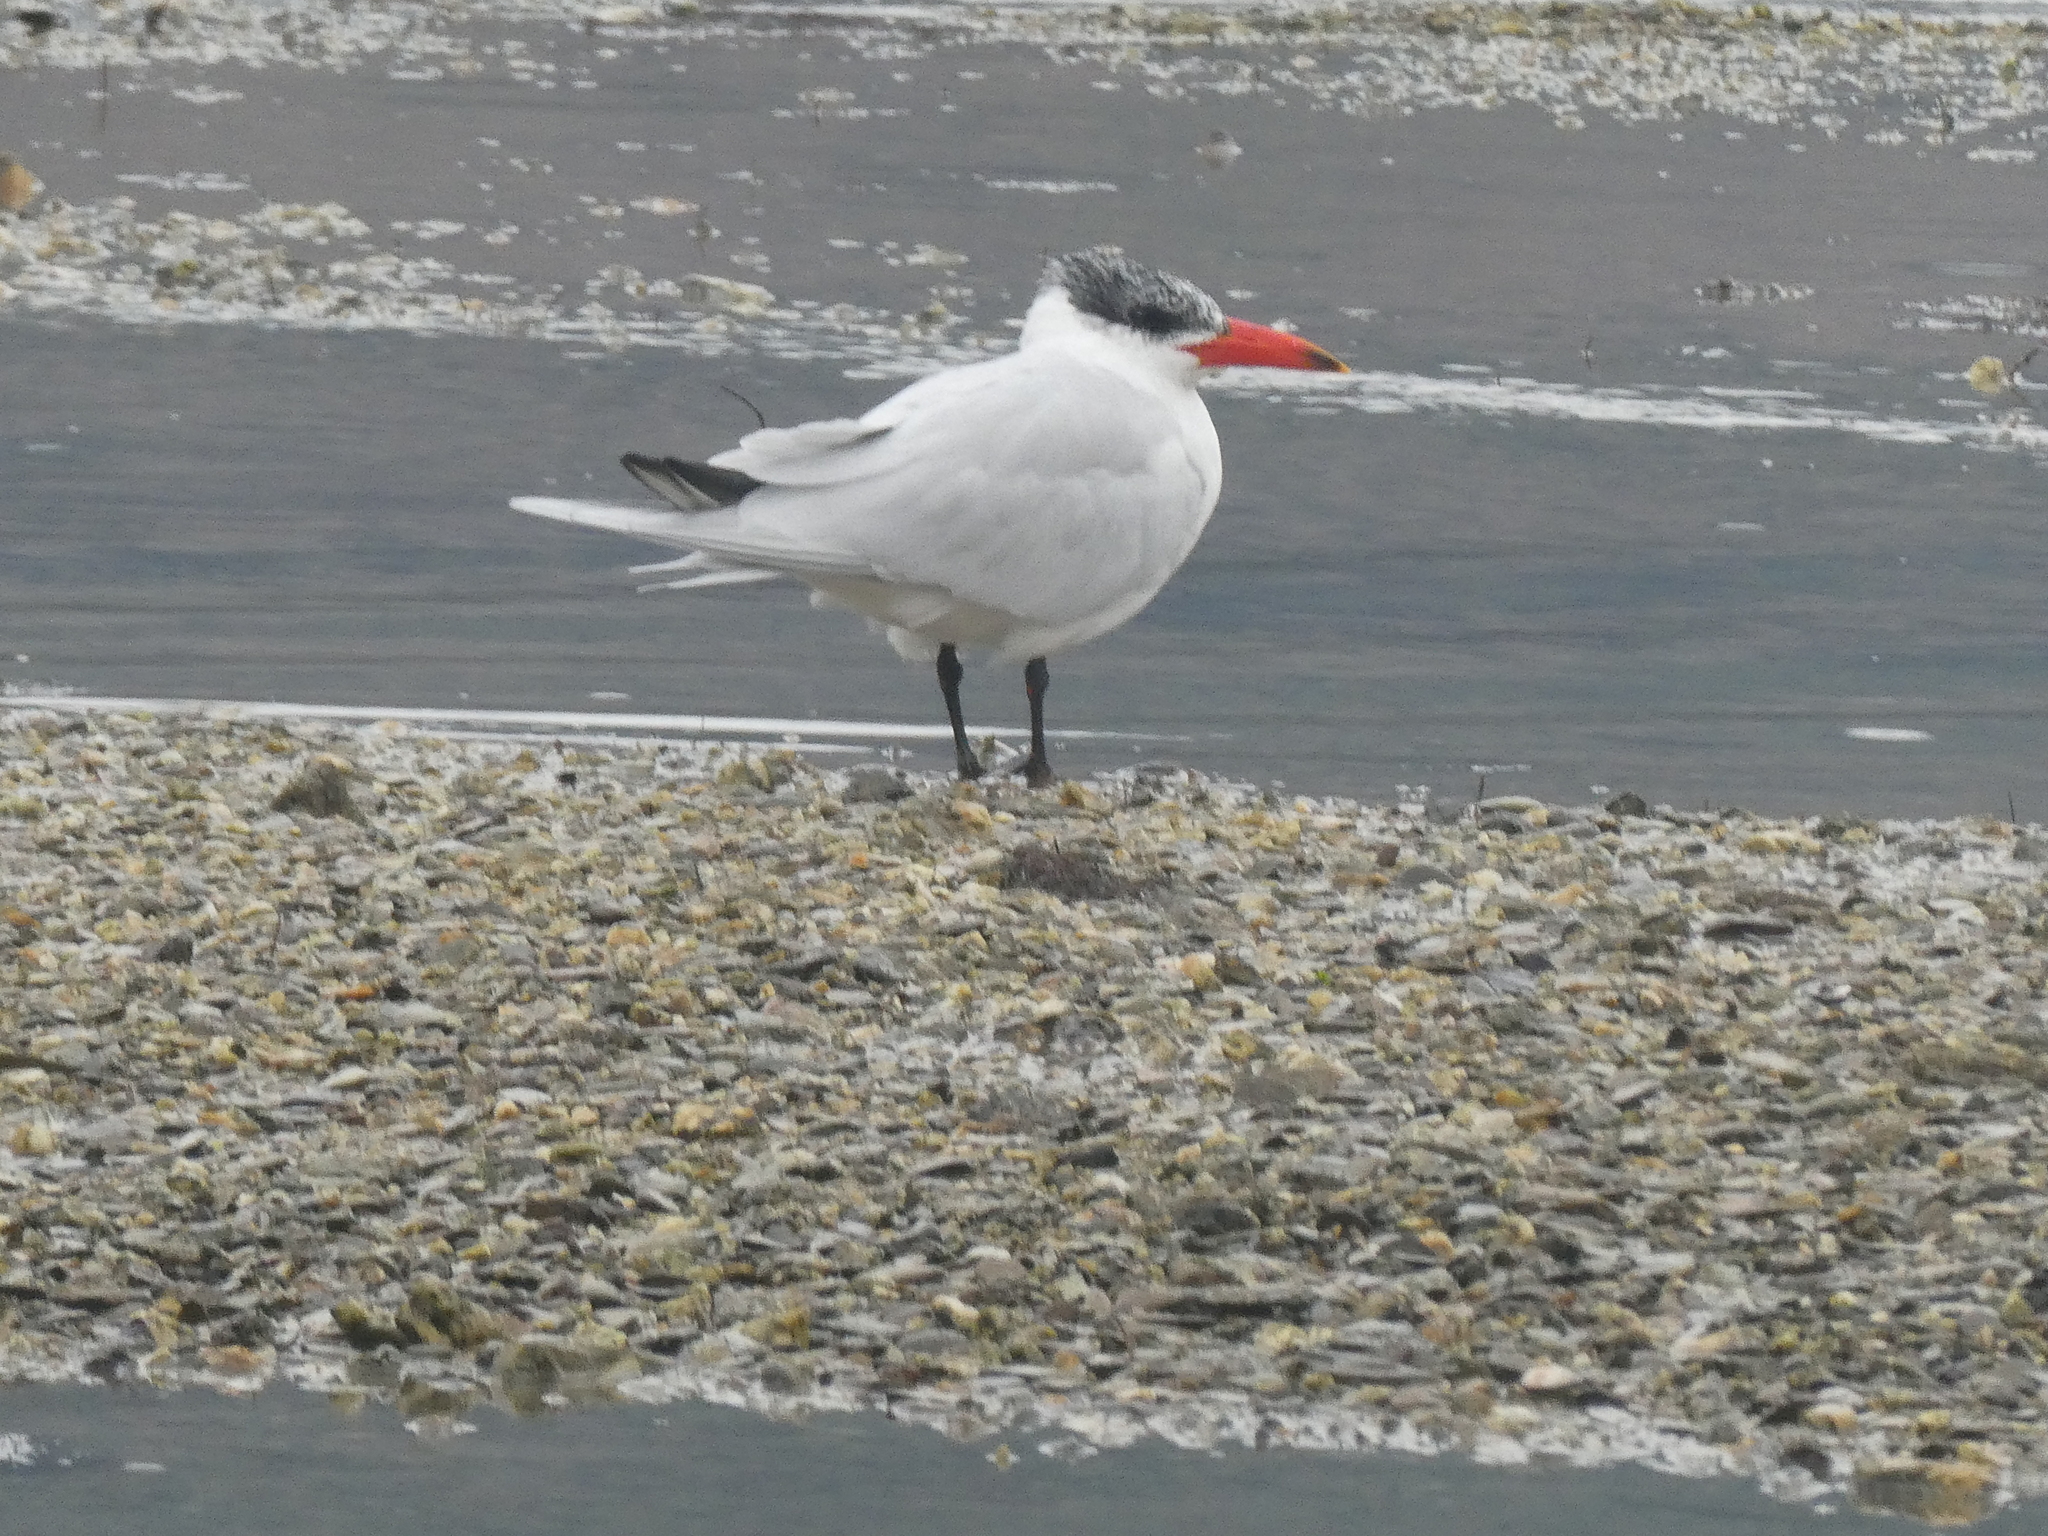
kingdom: Animalia
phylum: Chordata
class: Aves
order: Charadriiformes
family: Laridae
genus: Hydroprogne
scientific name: Hydroprogne caspia
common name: Caspian tern
